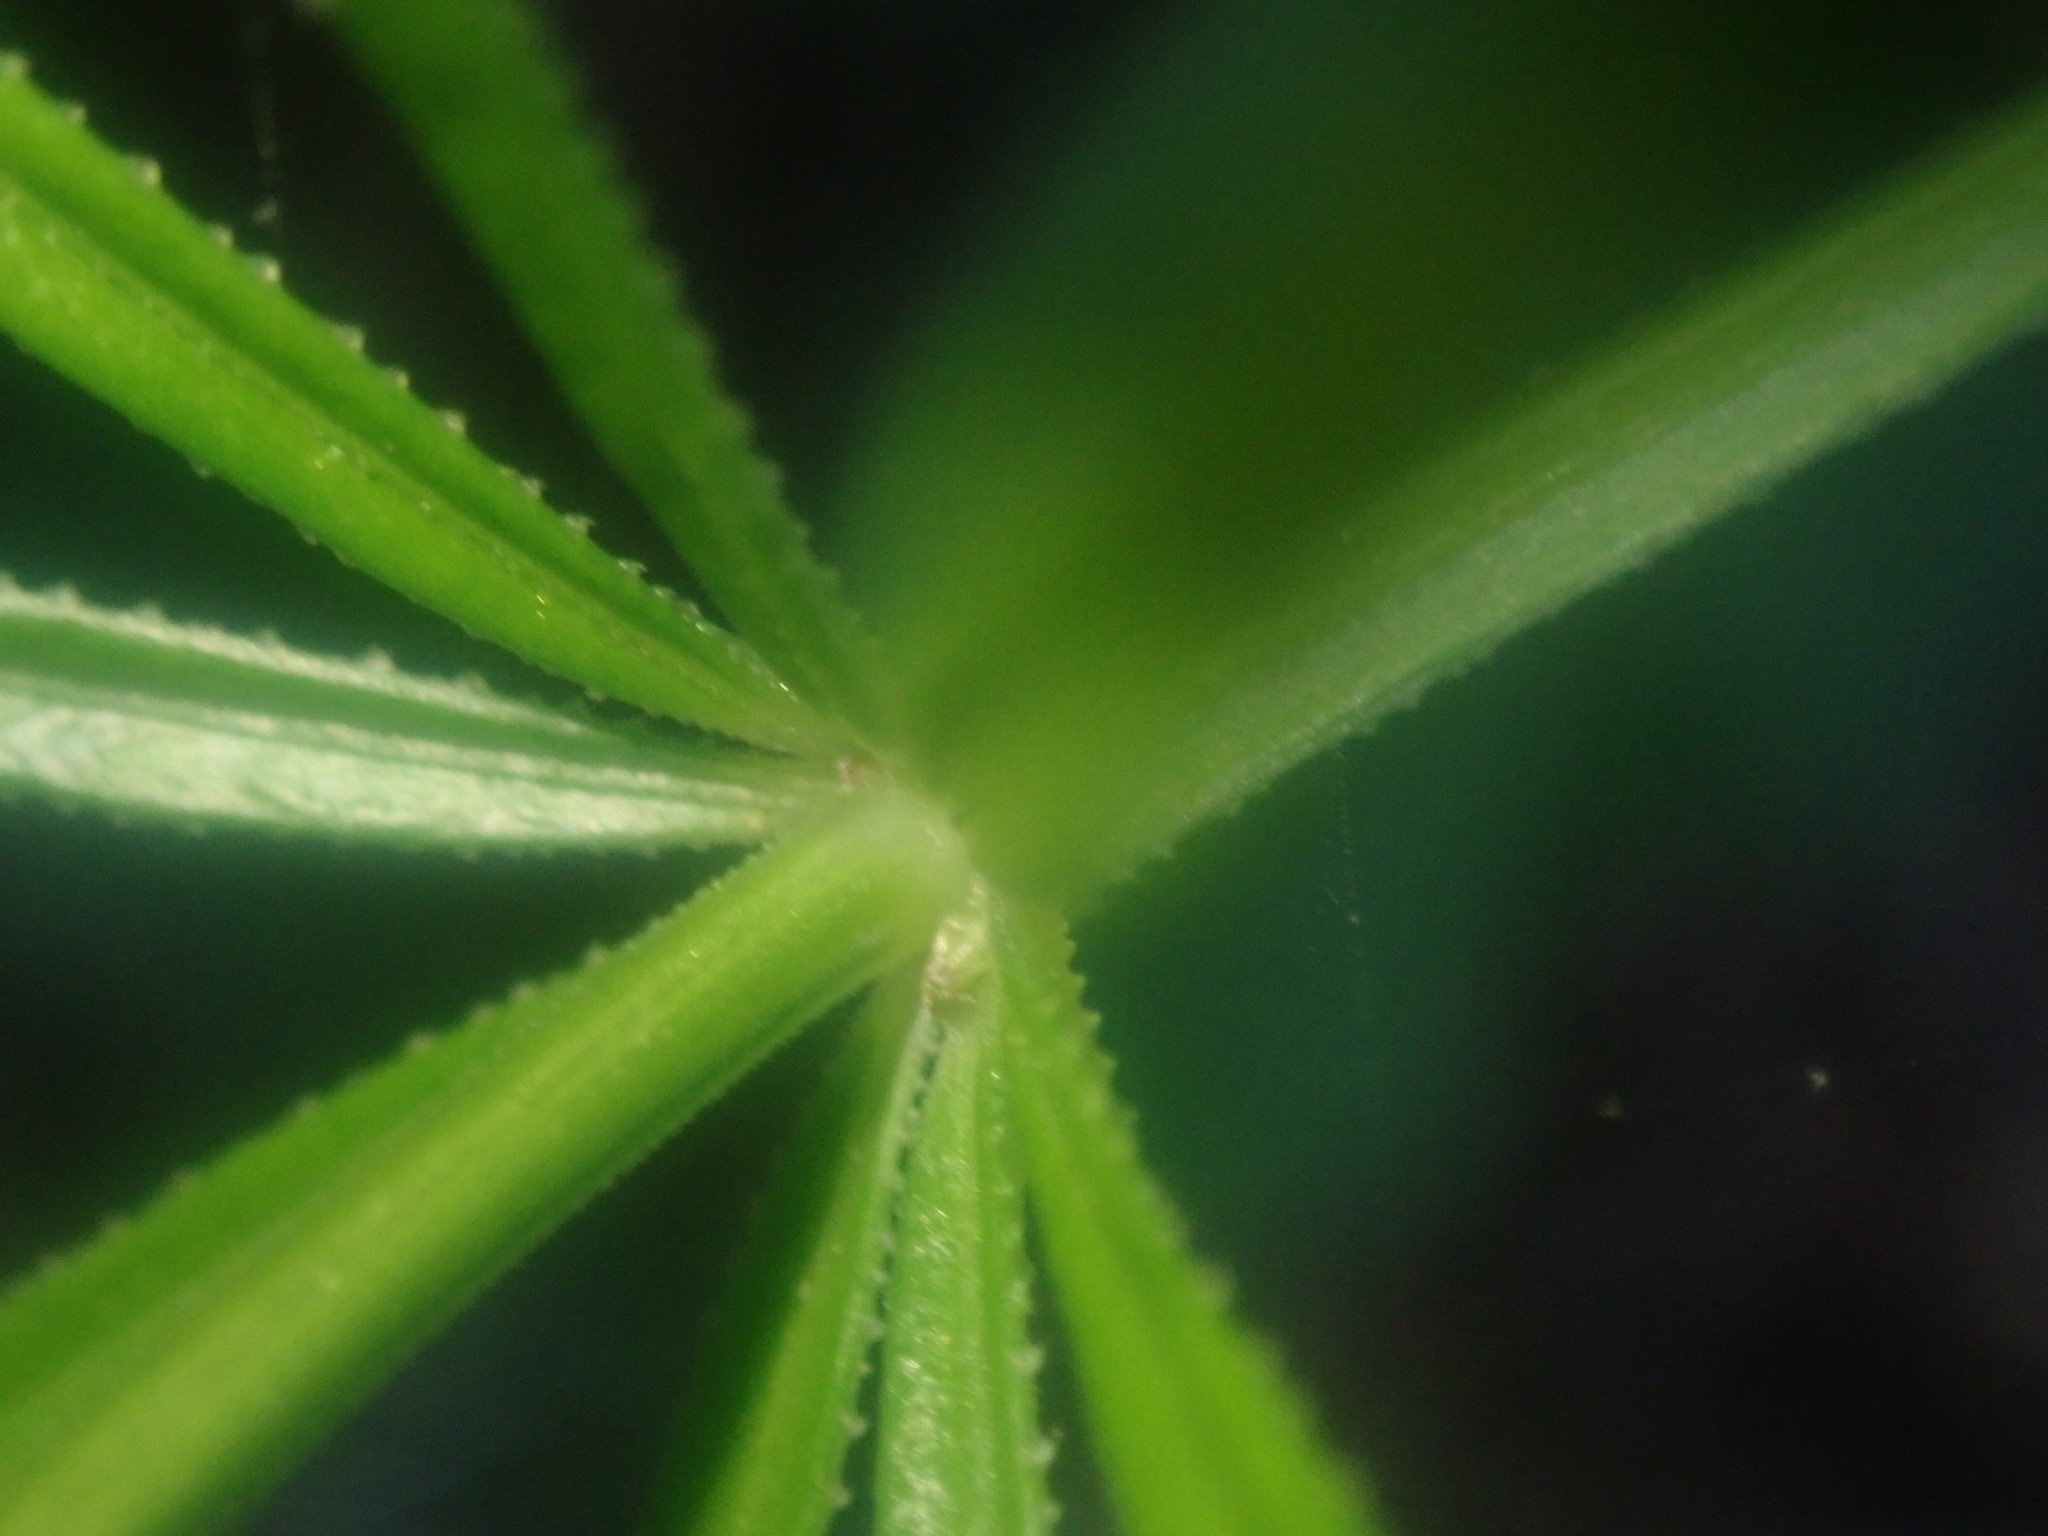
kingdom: Plantae
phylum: Tracheophyta
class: Magnoliopsida
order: Gentianales
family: Rubiaceae
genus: Rubia
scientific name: Rubia occidens
